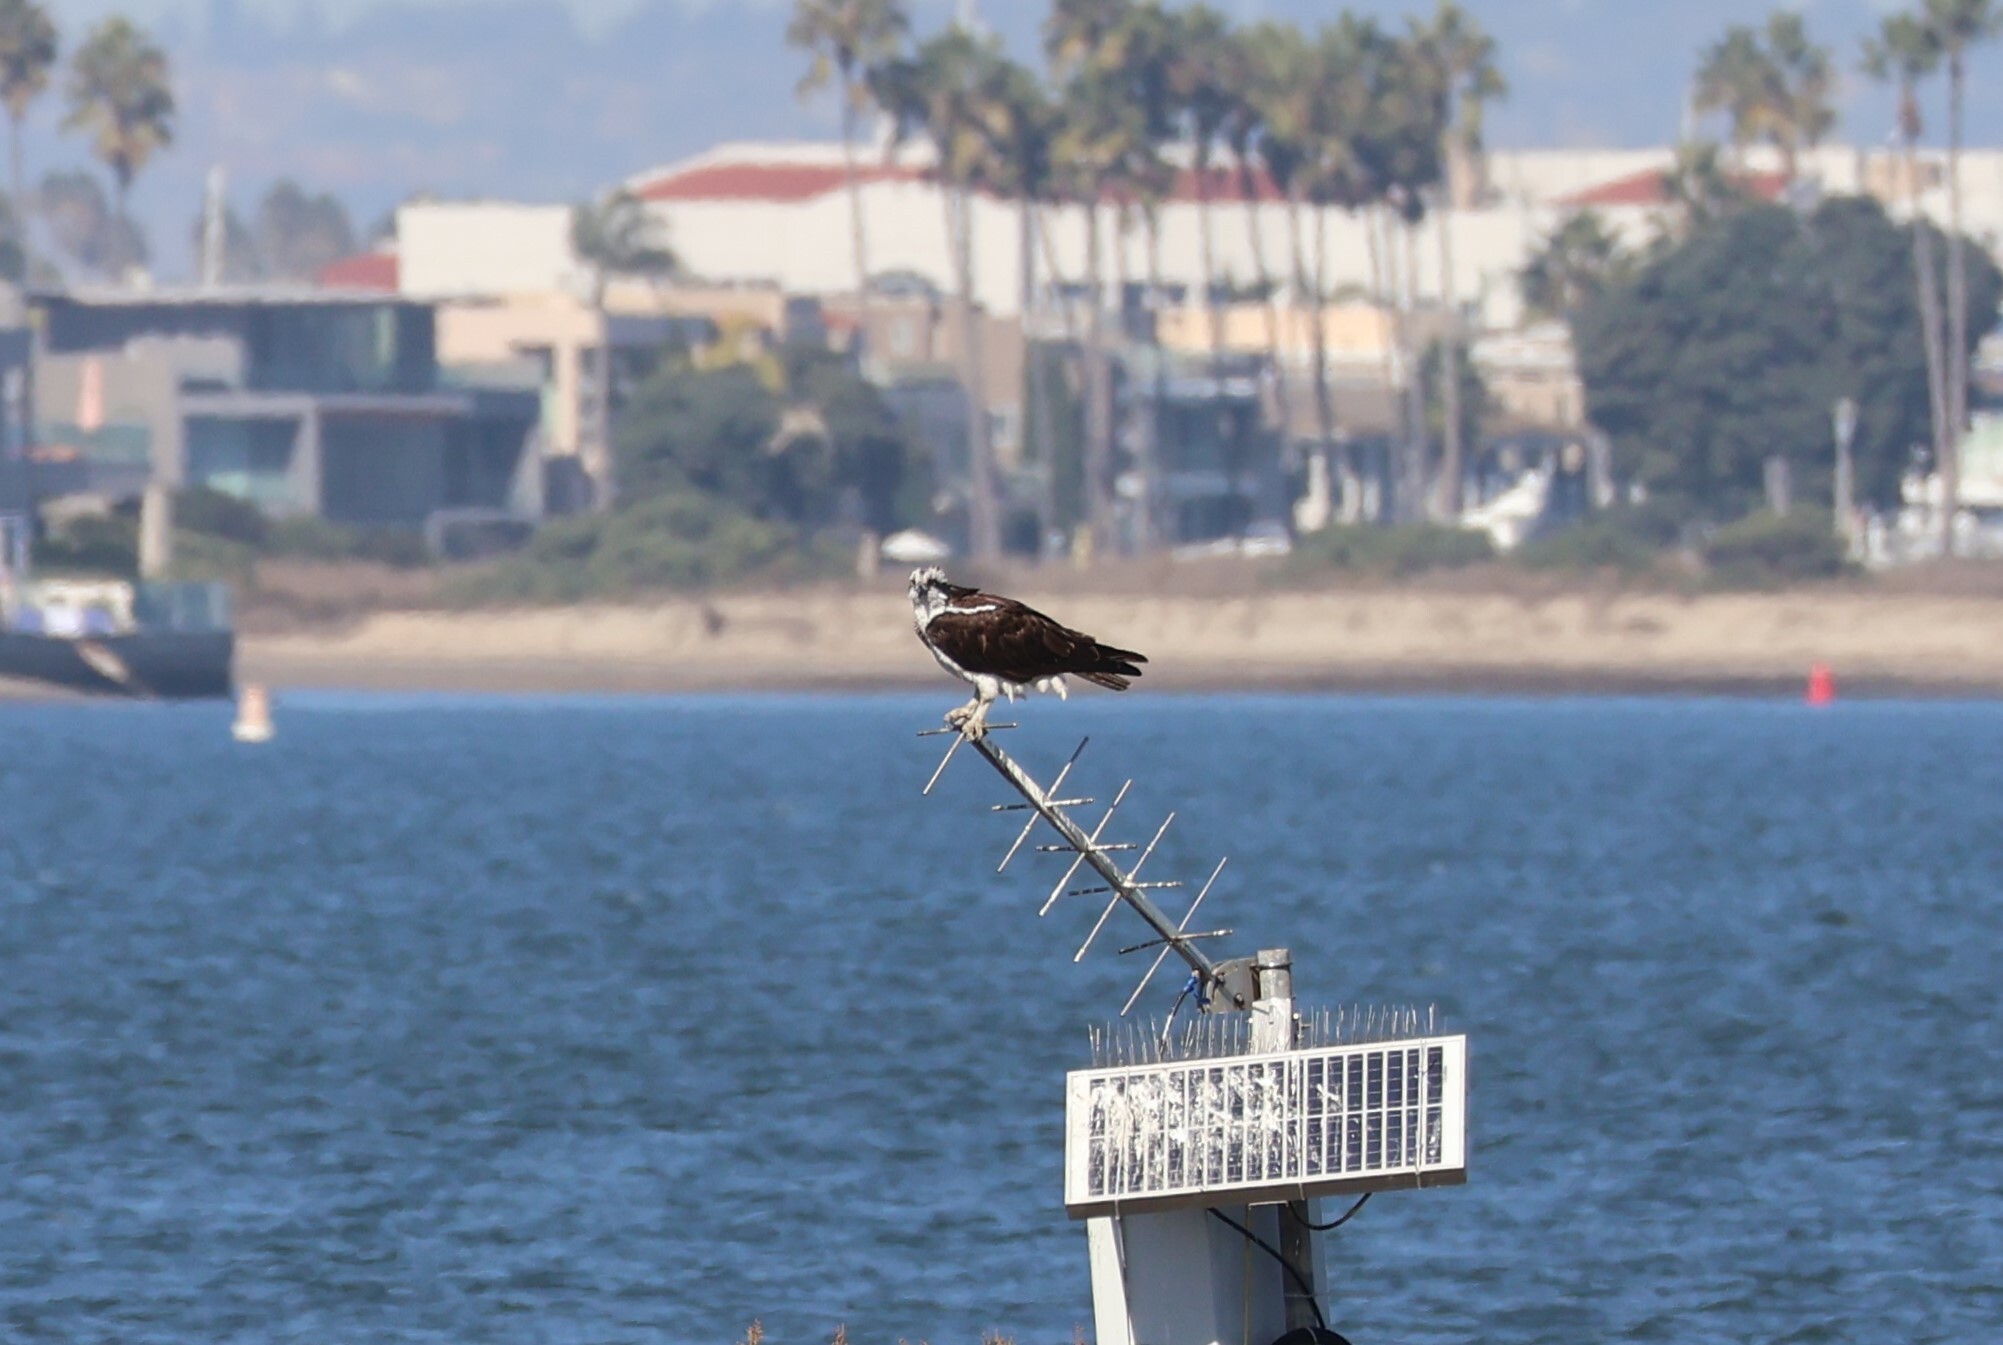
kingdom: Animalia
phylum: Chordata
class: Aves
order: Accipitriformes
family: Pandionidae
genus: Pandion
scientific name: Pandion haliaetus
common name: Osprey
